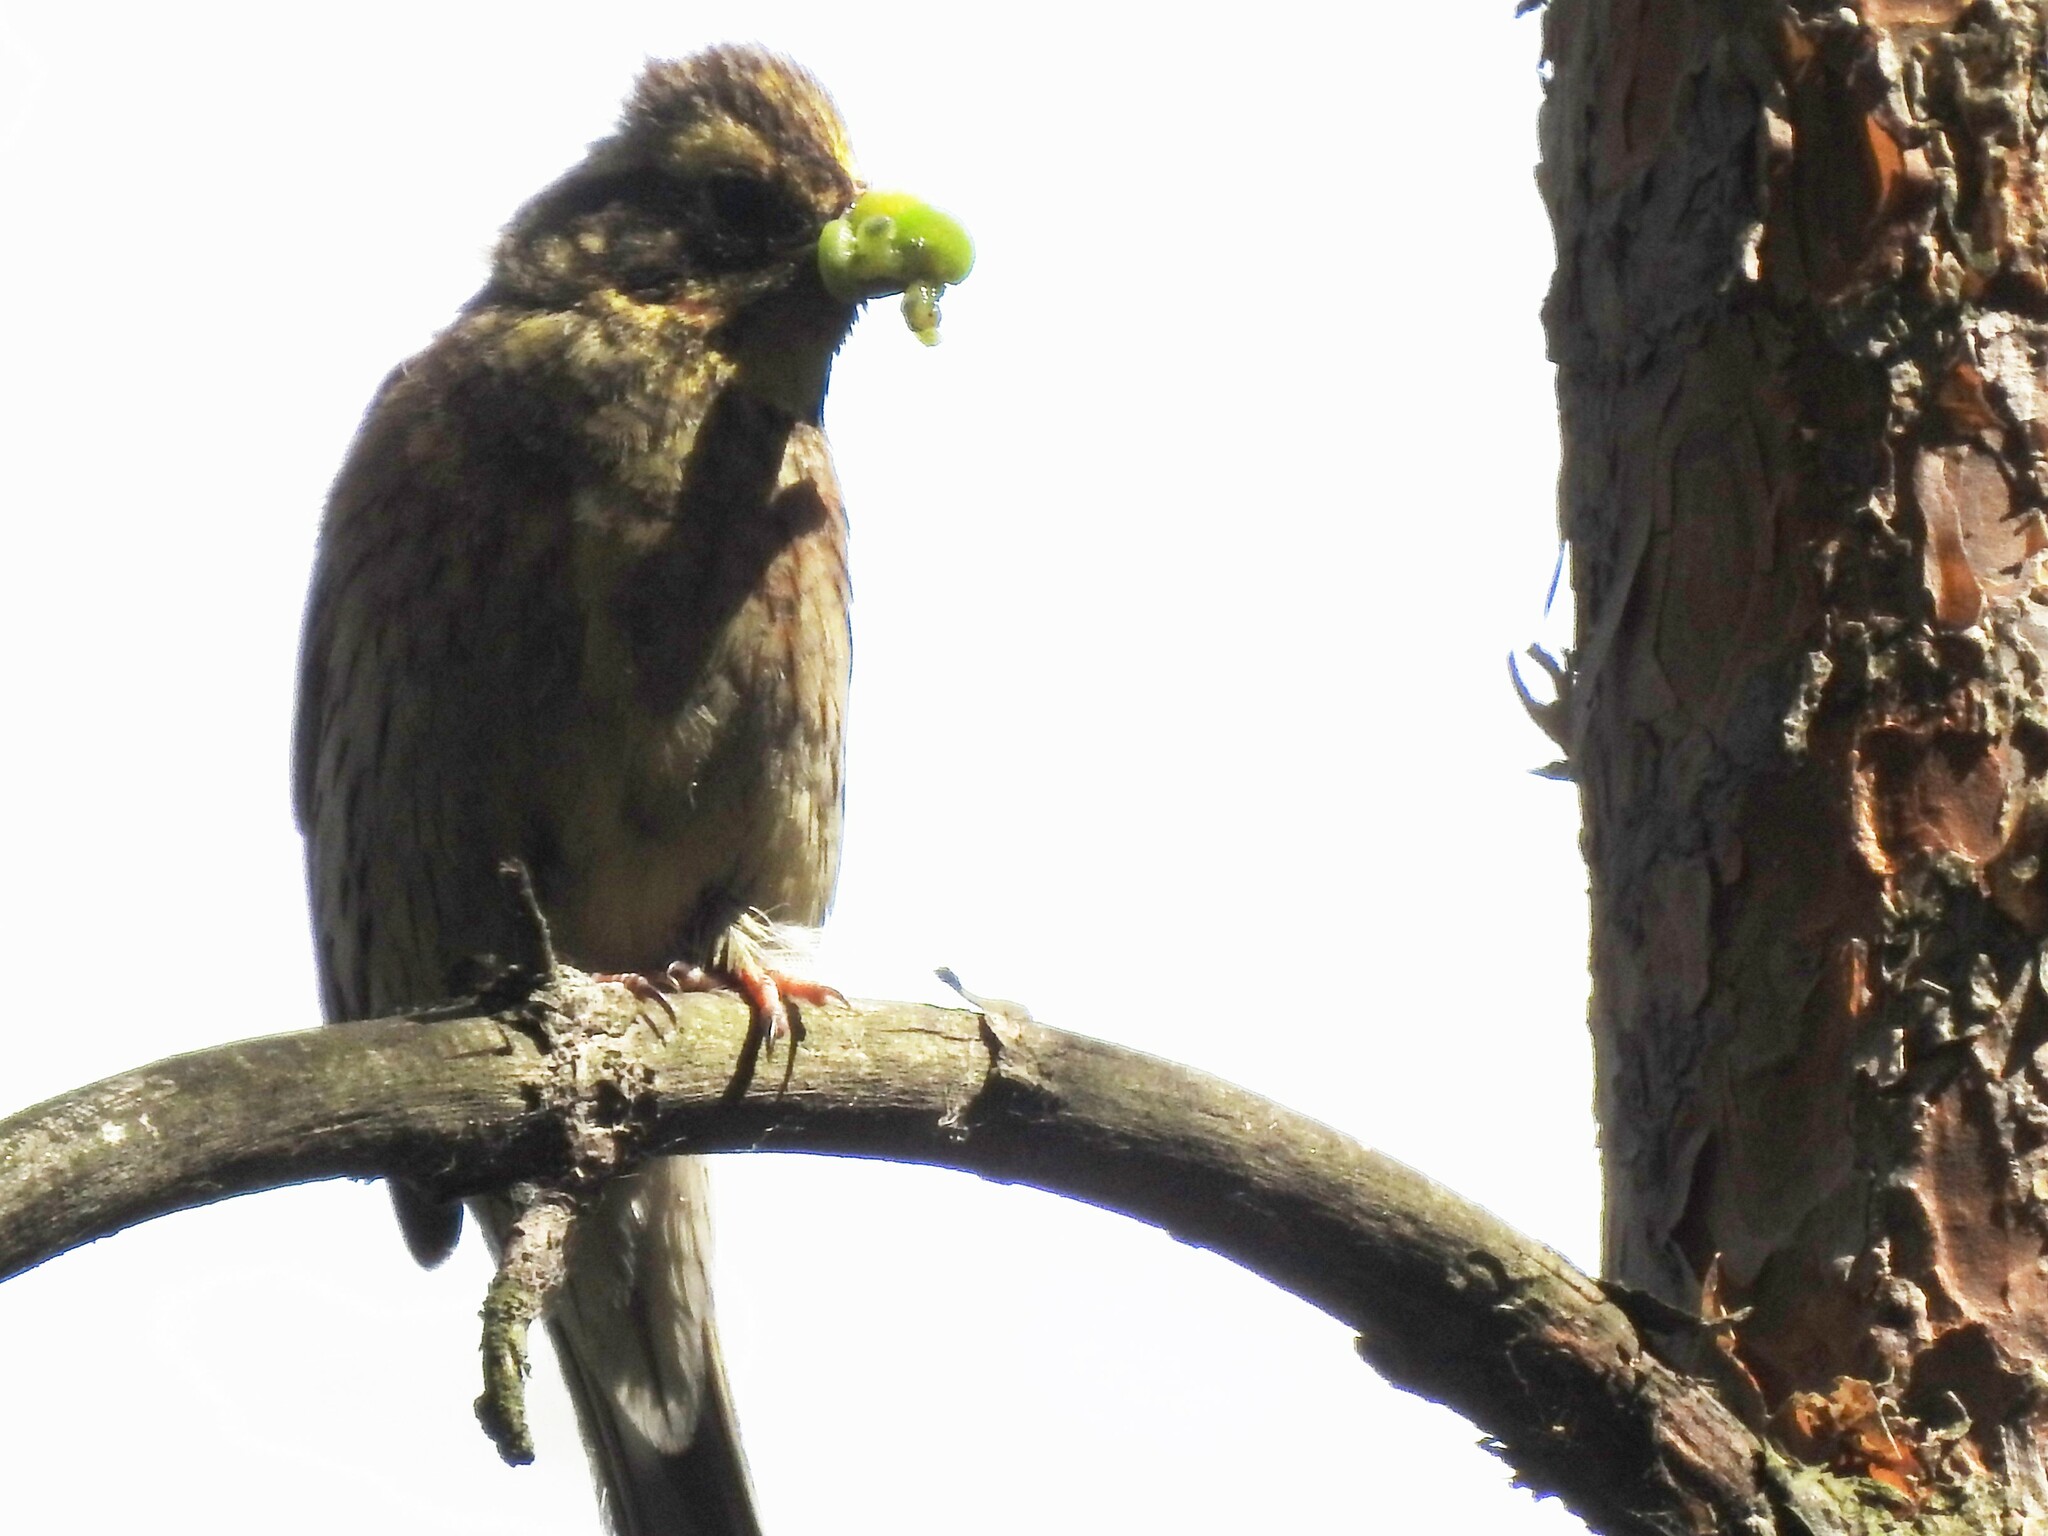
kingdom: Animalia
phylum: Chordata
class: Aves
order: Passeriformes
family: Emberizidae
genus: Emberiza
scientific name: Emberiza citrinella
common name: Yellowhammer
